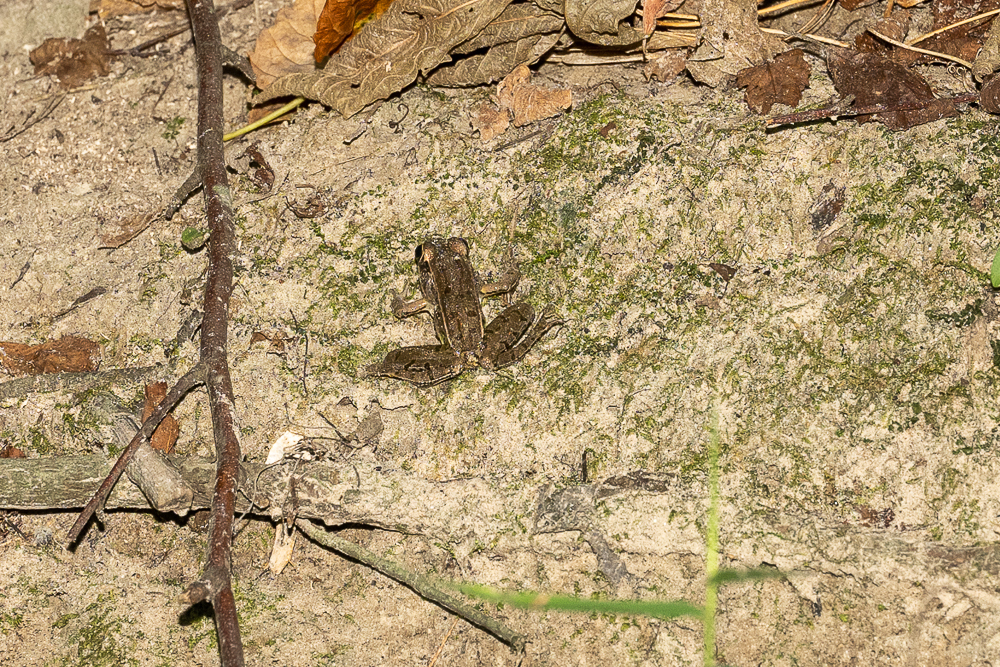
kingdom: Animalia
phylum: Chordata
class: Amphibia
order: Anura
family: Ranidae
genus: Lithobates
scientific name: Lithobates sphenocephalus
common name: Southern leopard frog
